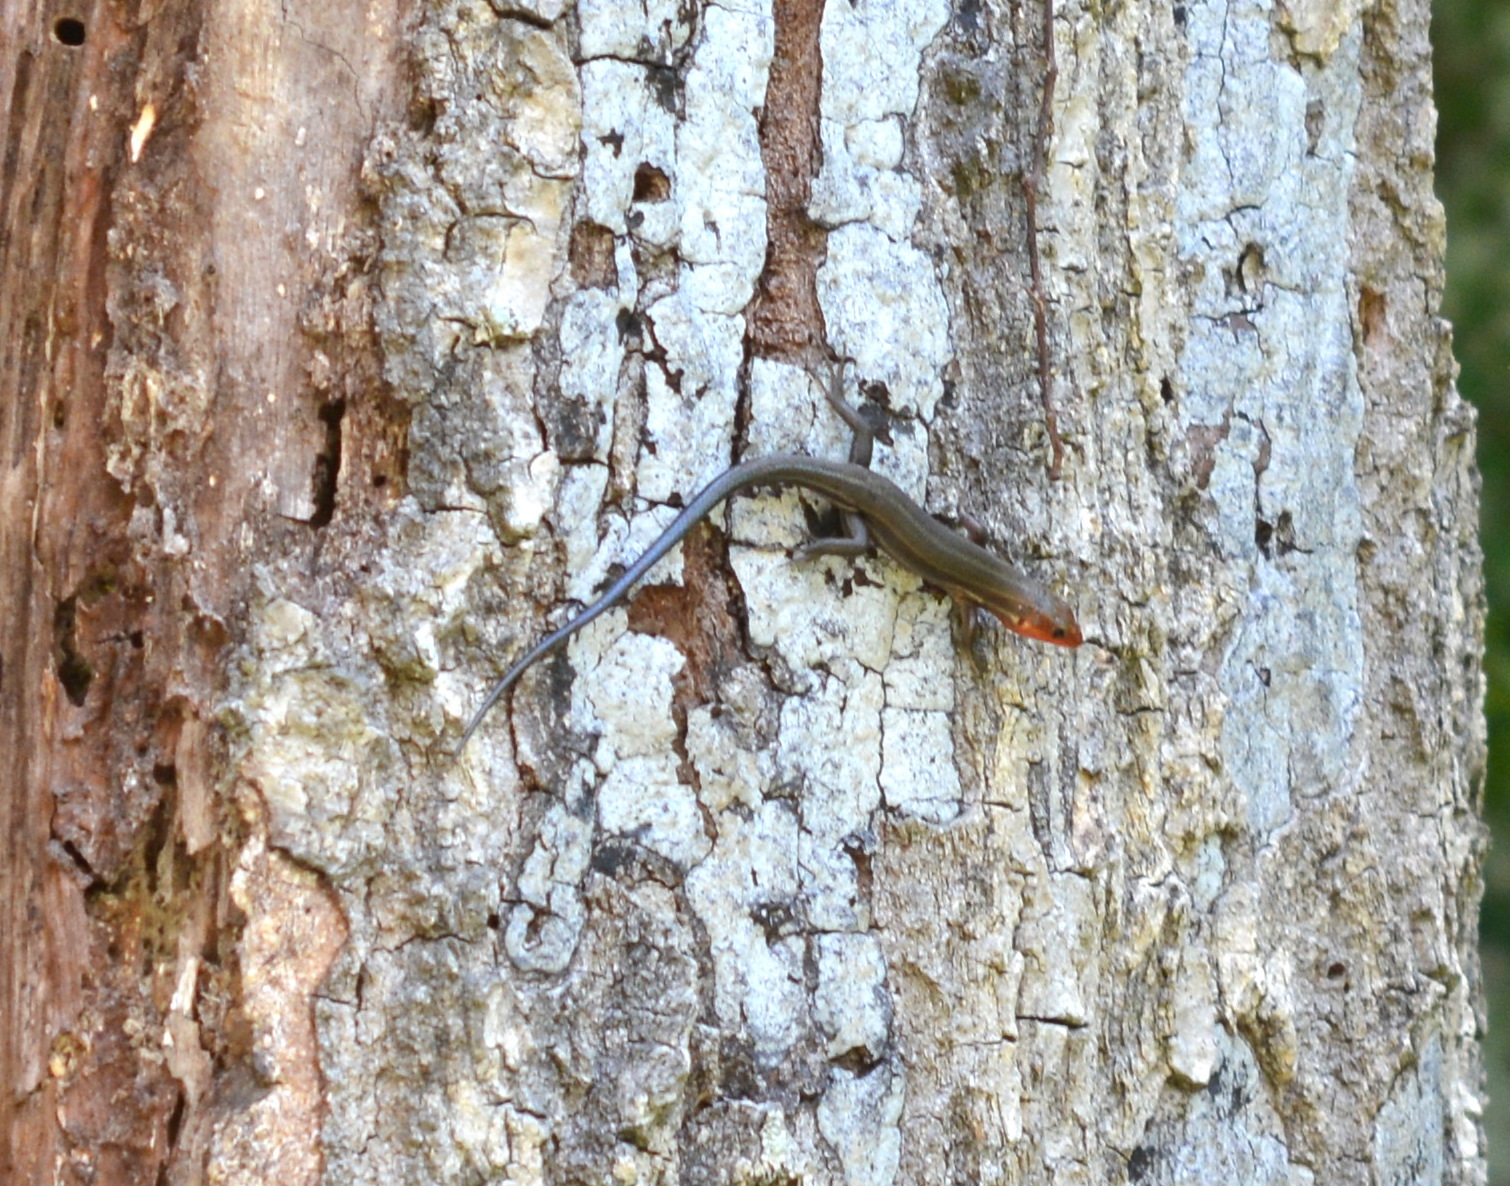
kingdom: Animalia
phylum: Chordata
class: Squamata
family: Scincidae
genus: Plestiodon
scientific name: Plestiodon fasciatus
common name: Five-lined skink
